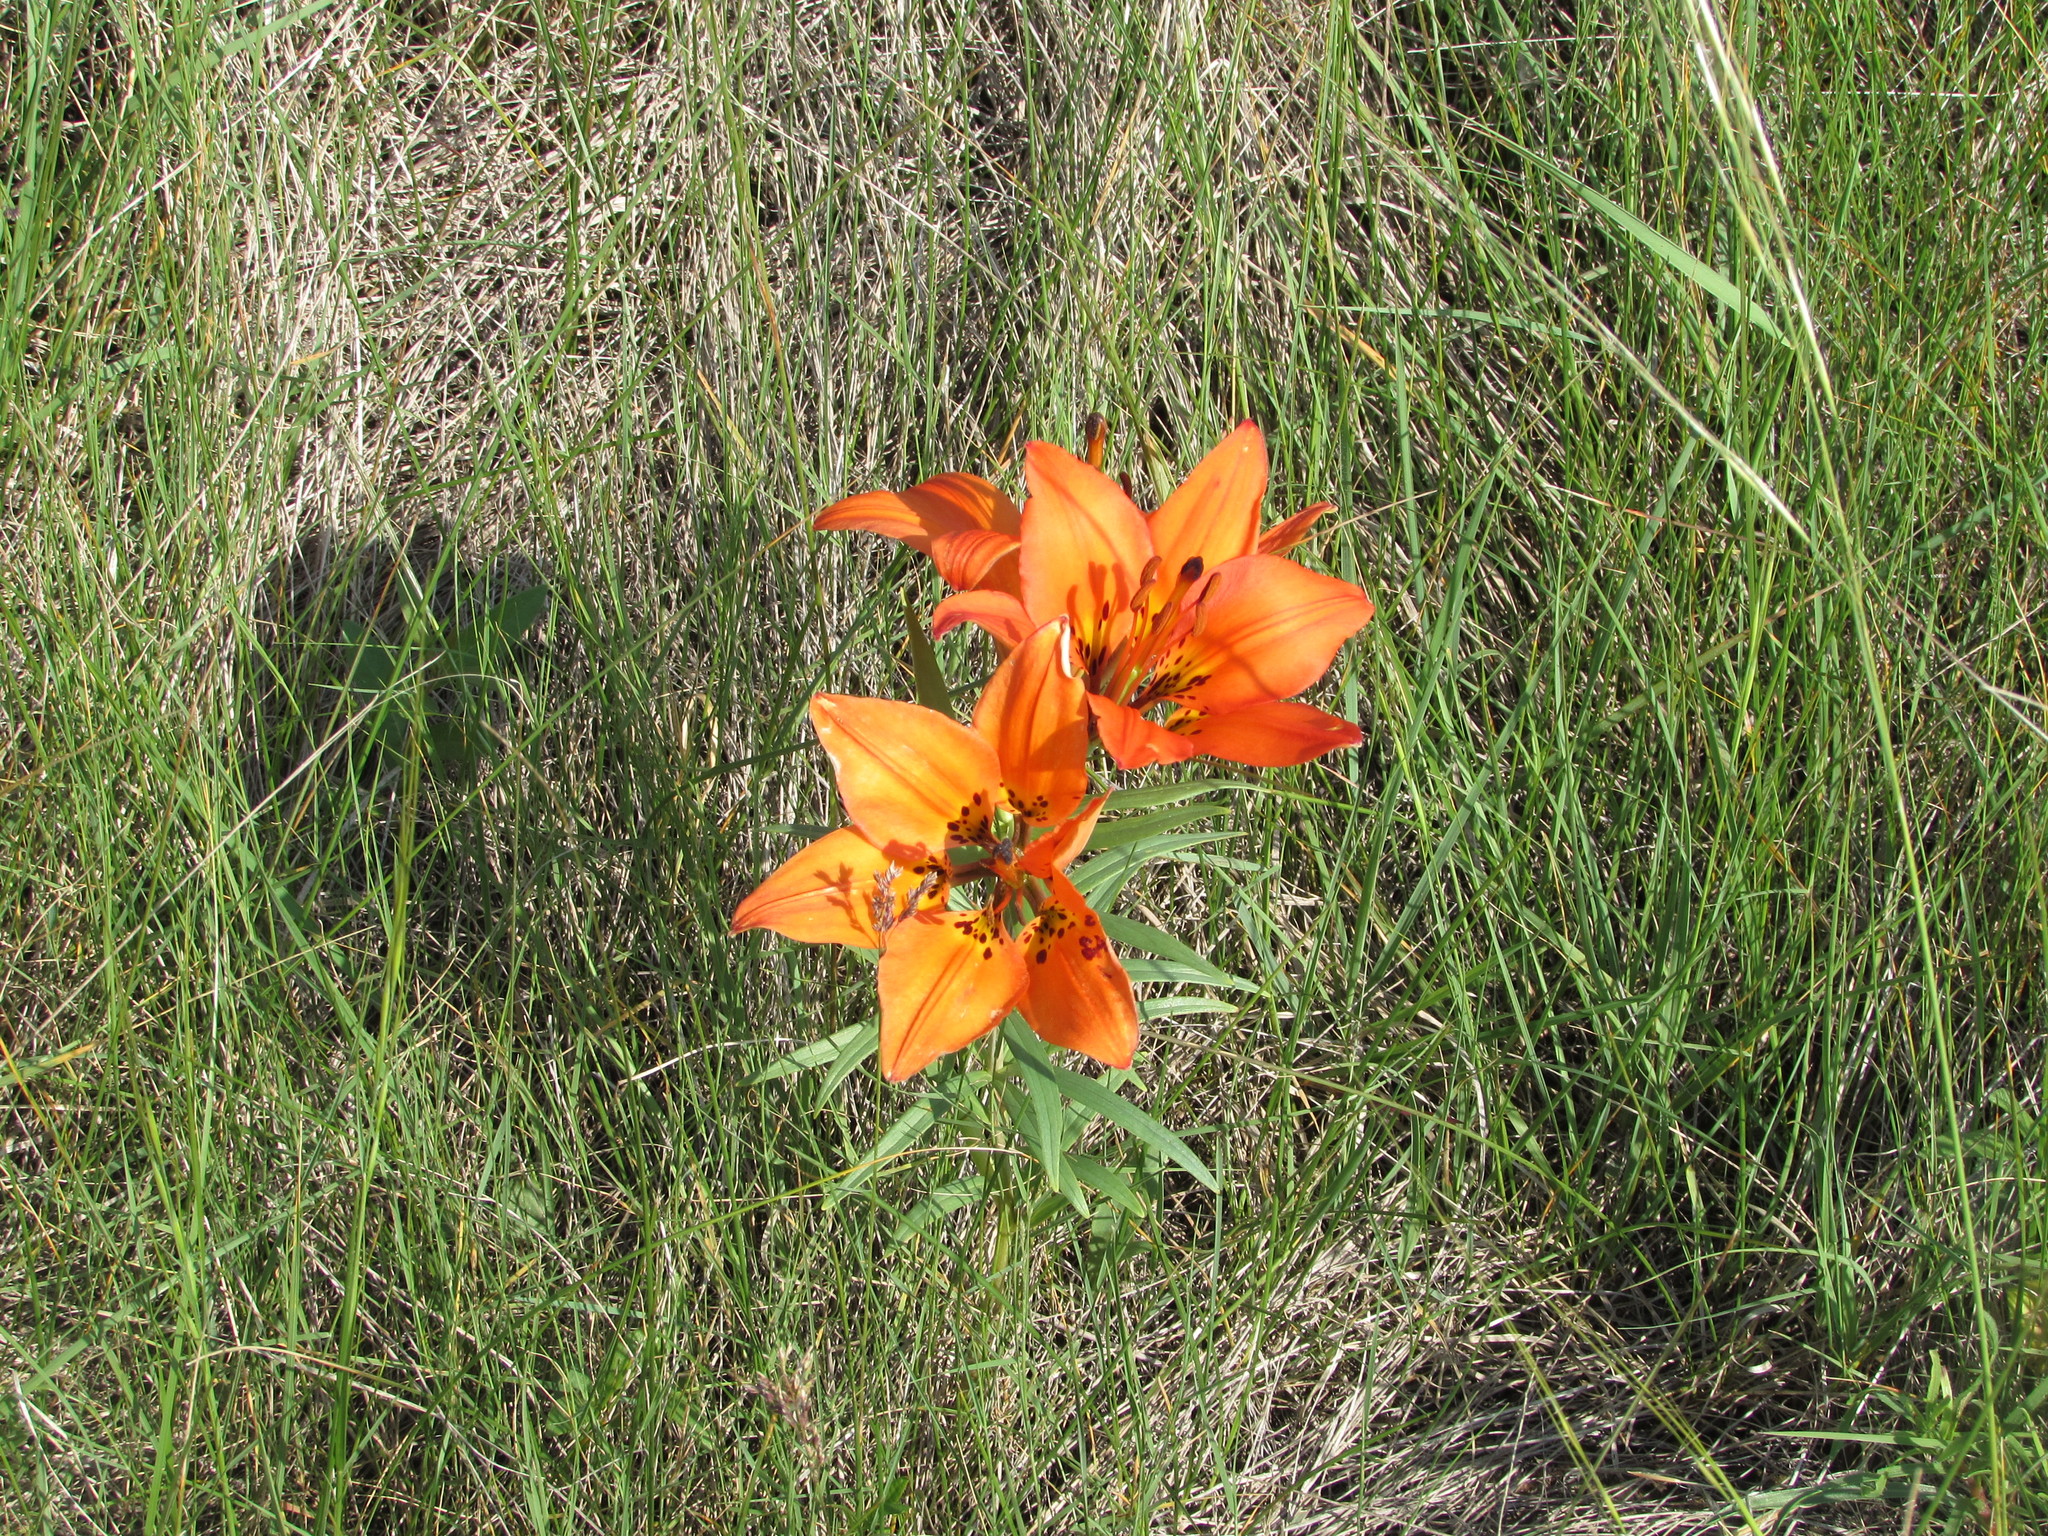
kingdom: Plantae
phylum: Tracheophyta
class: Liliopsida
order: Liliales
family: Liliaceae
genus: Lilium
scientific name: Lilium philadelphicum
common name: Red lily
